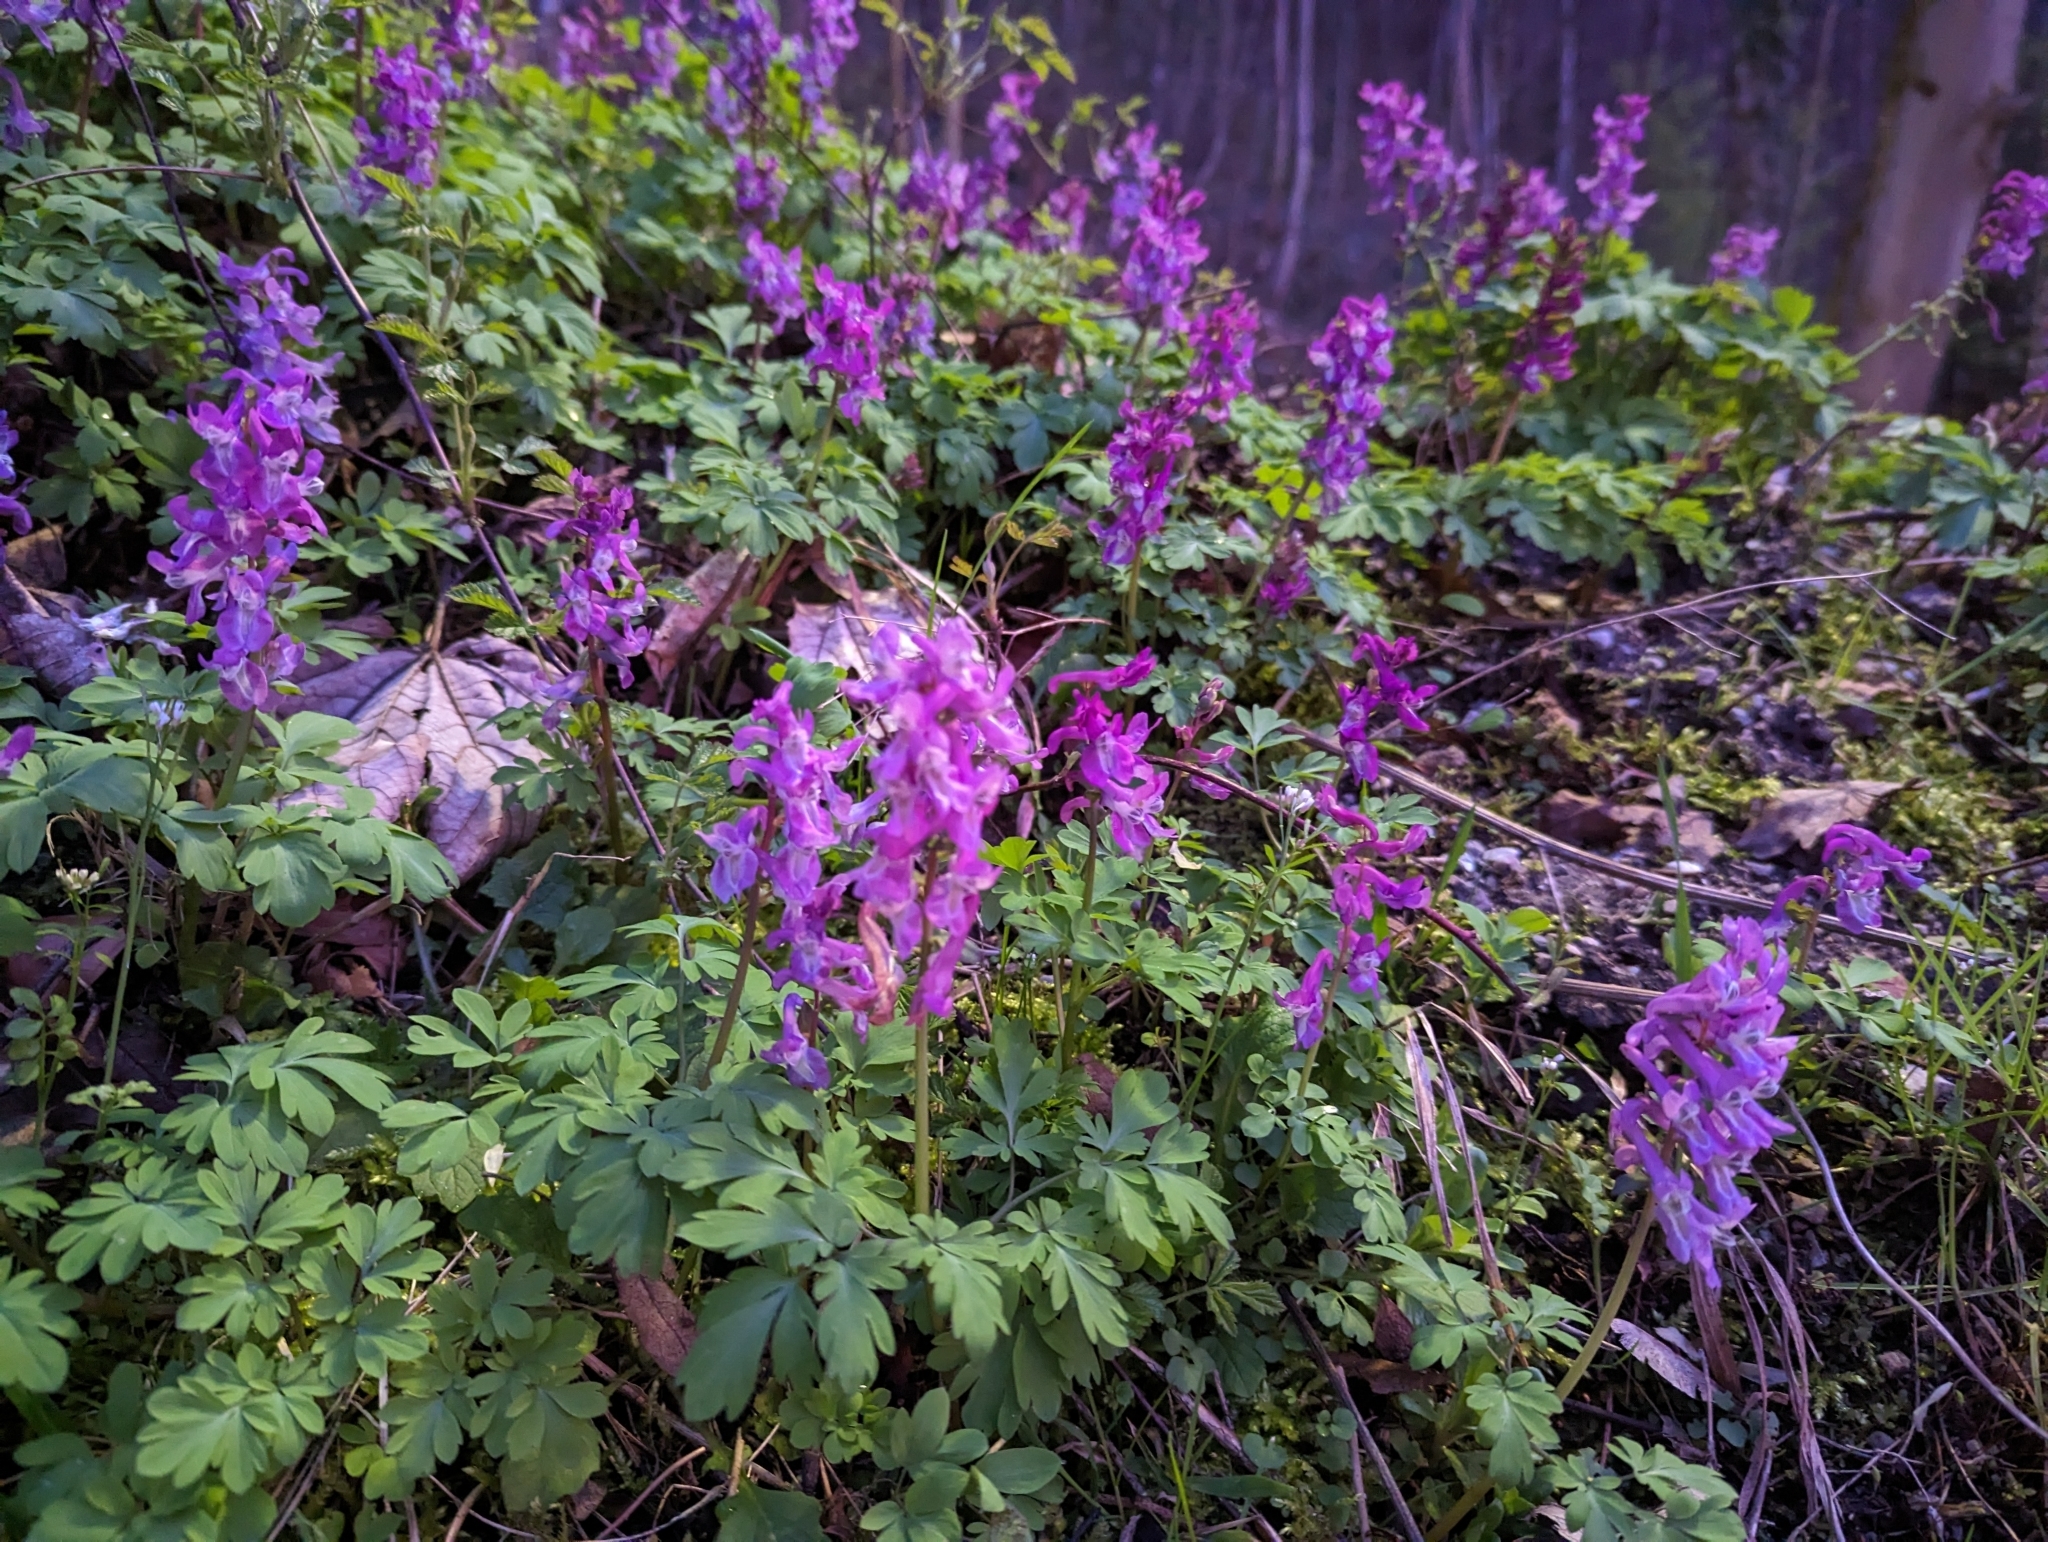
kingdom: Plantae
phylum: Tracheophyta
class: Magnoliopsida
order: Ranunculales
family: Papaveraceae
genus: Corydalis
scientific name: Corydalis cava
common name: Hollowroot
